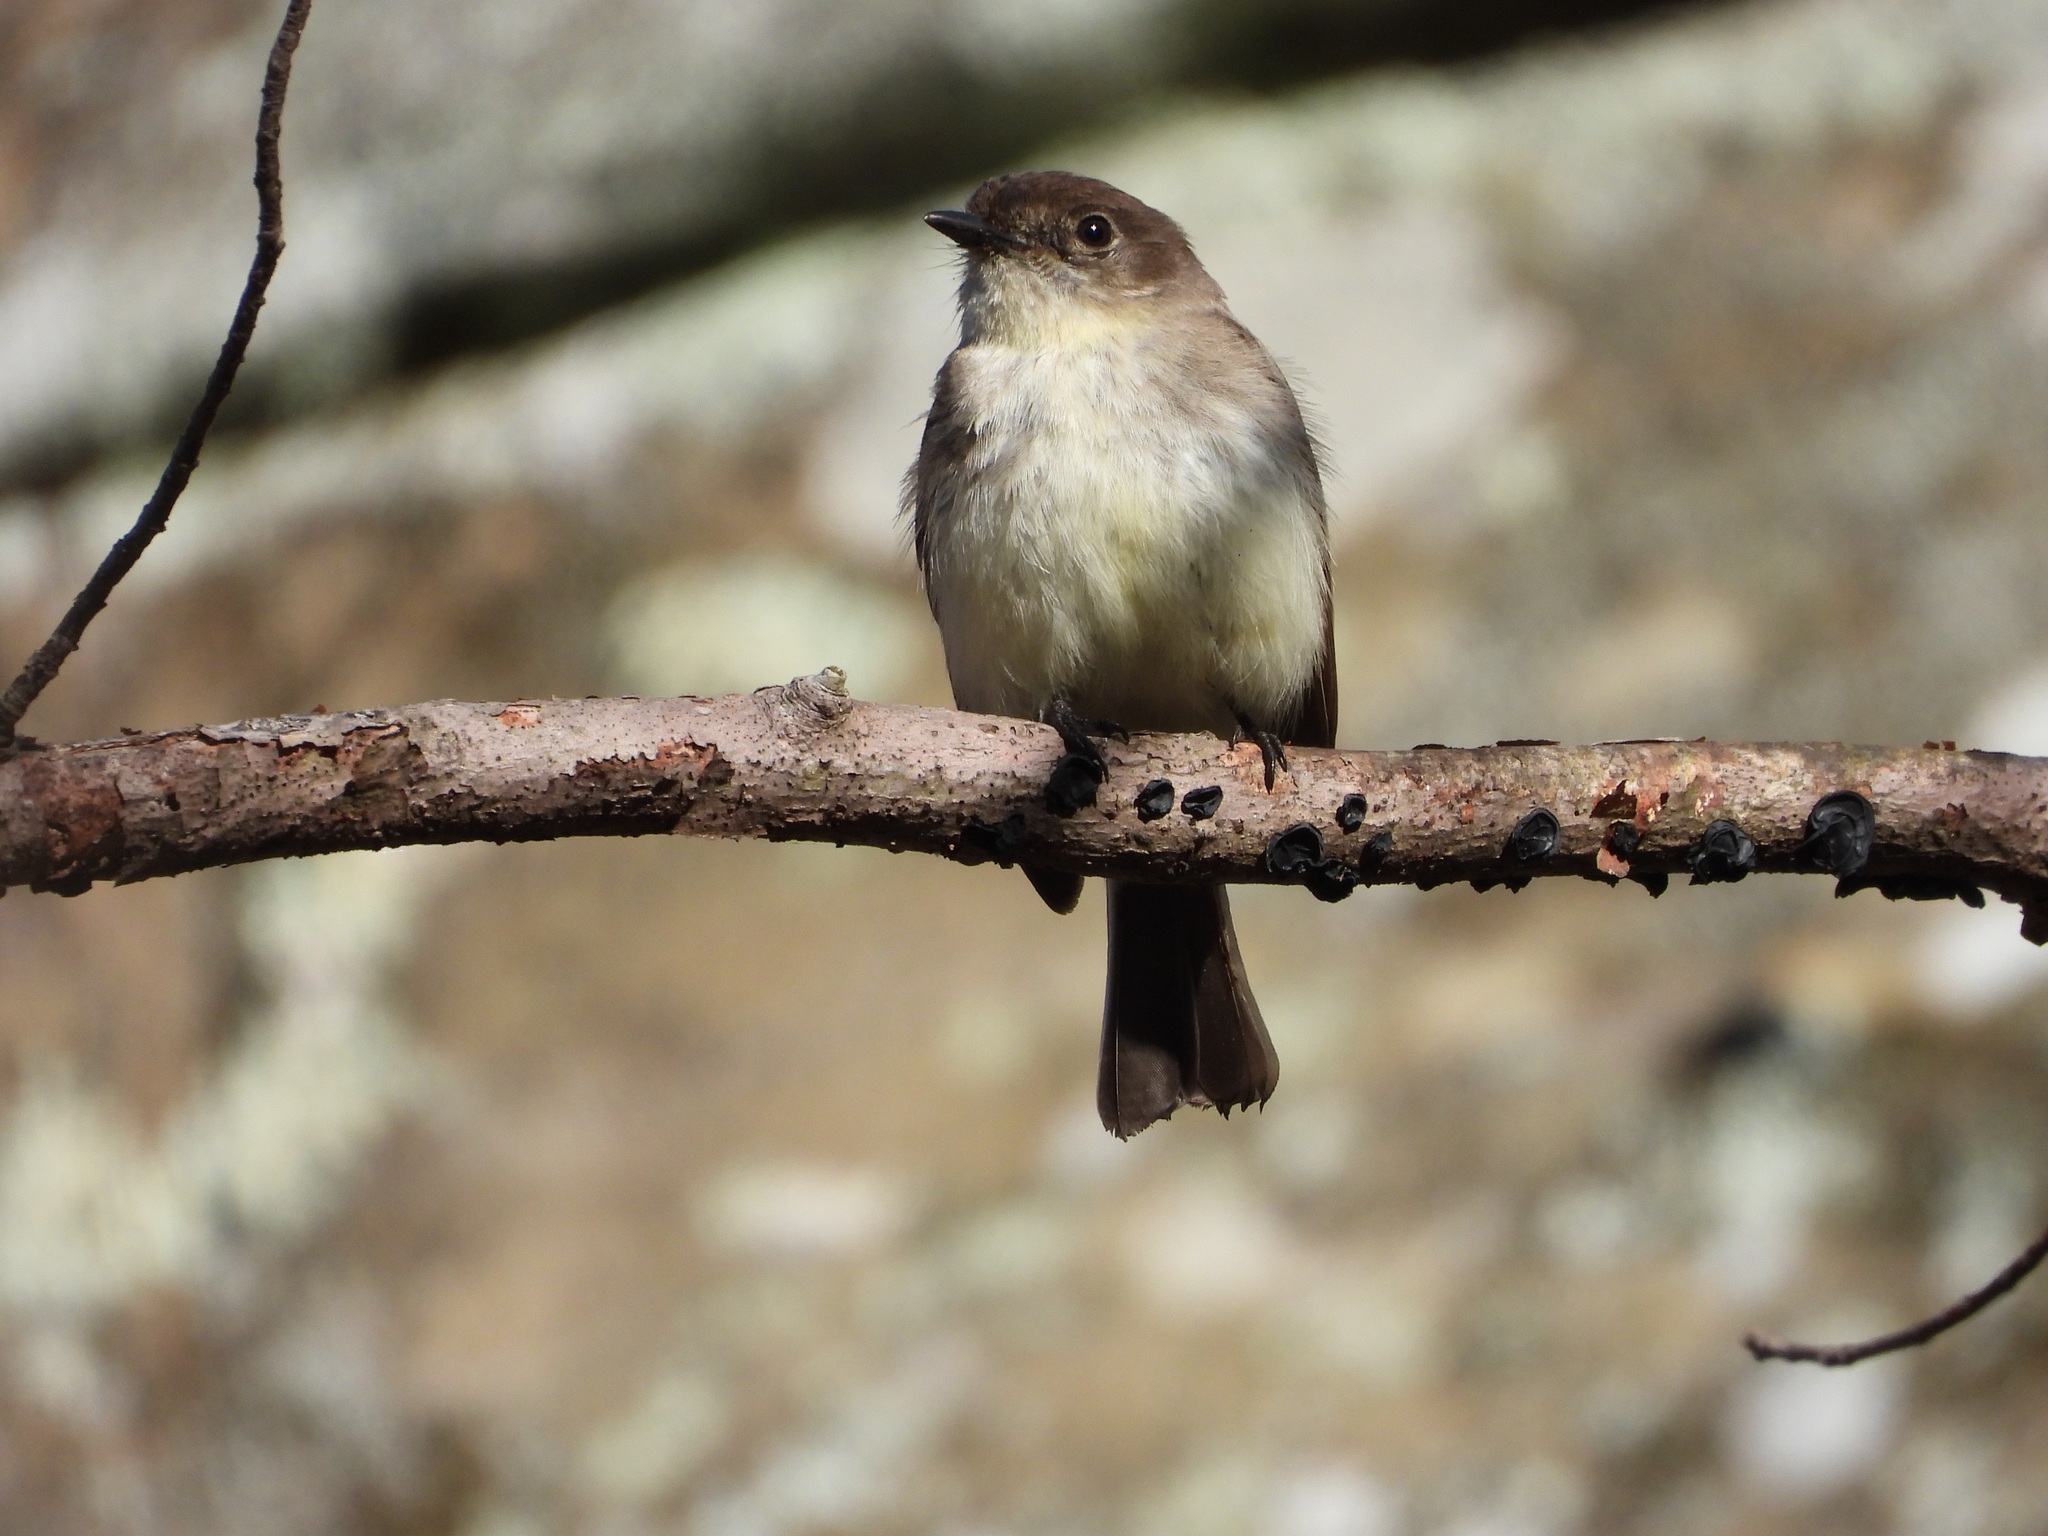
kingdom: Animalia
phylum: Chordata
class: Aves
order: Passeriformes
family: Tyrannidae
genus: Sayornis
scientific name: Sayornis phoebe
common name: Eastern phoebe
